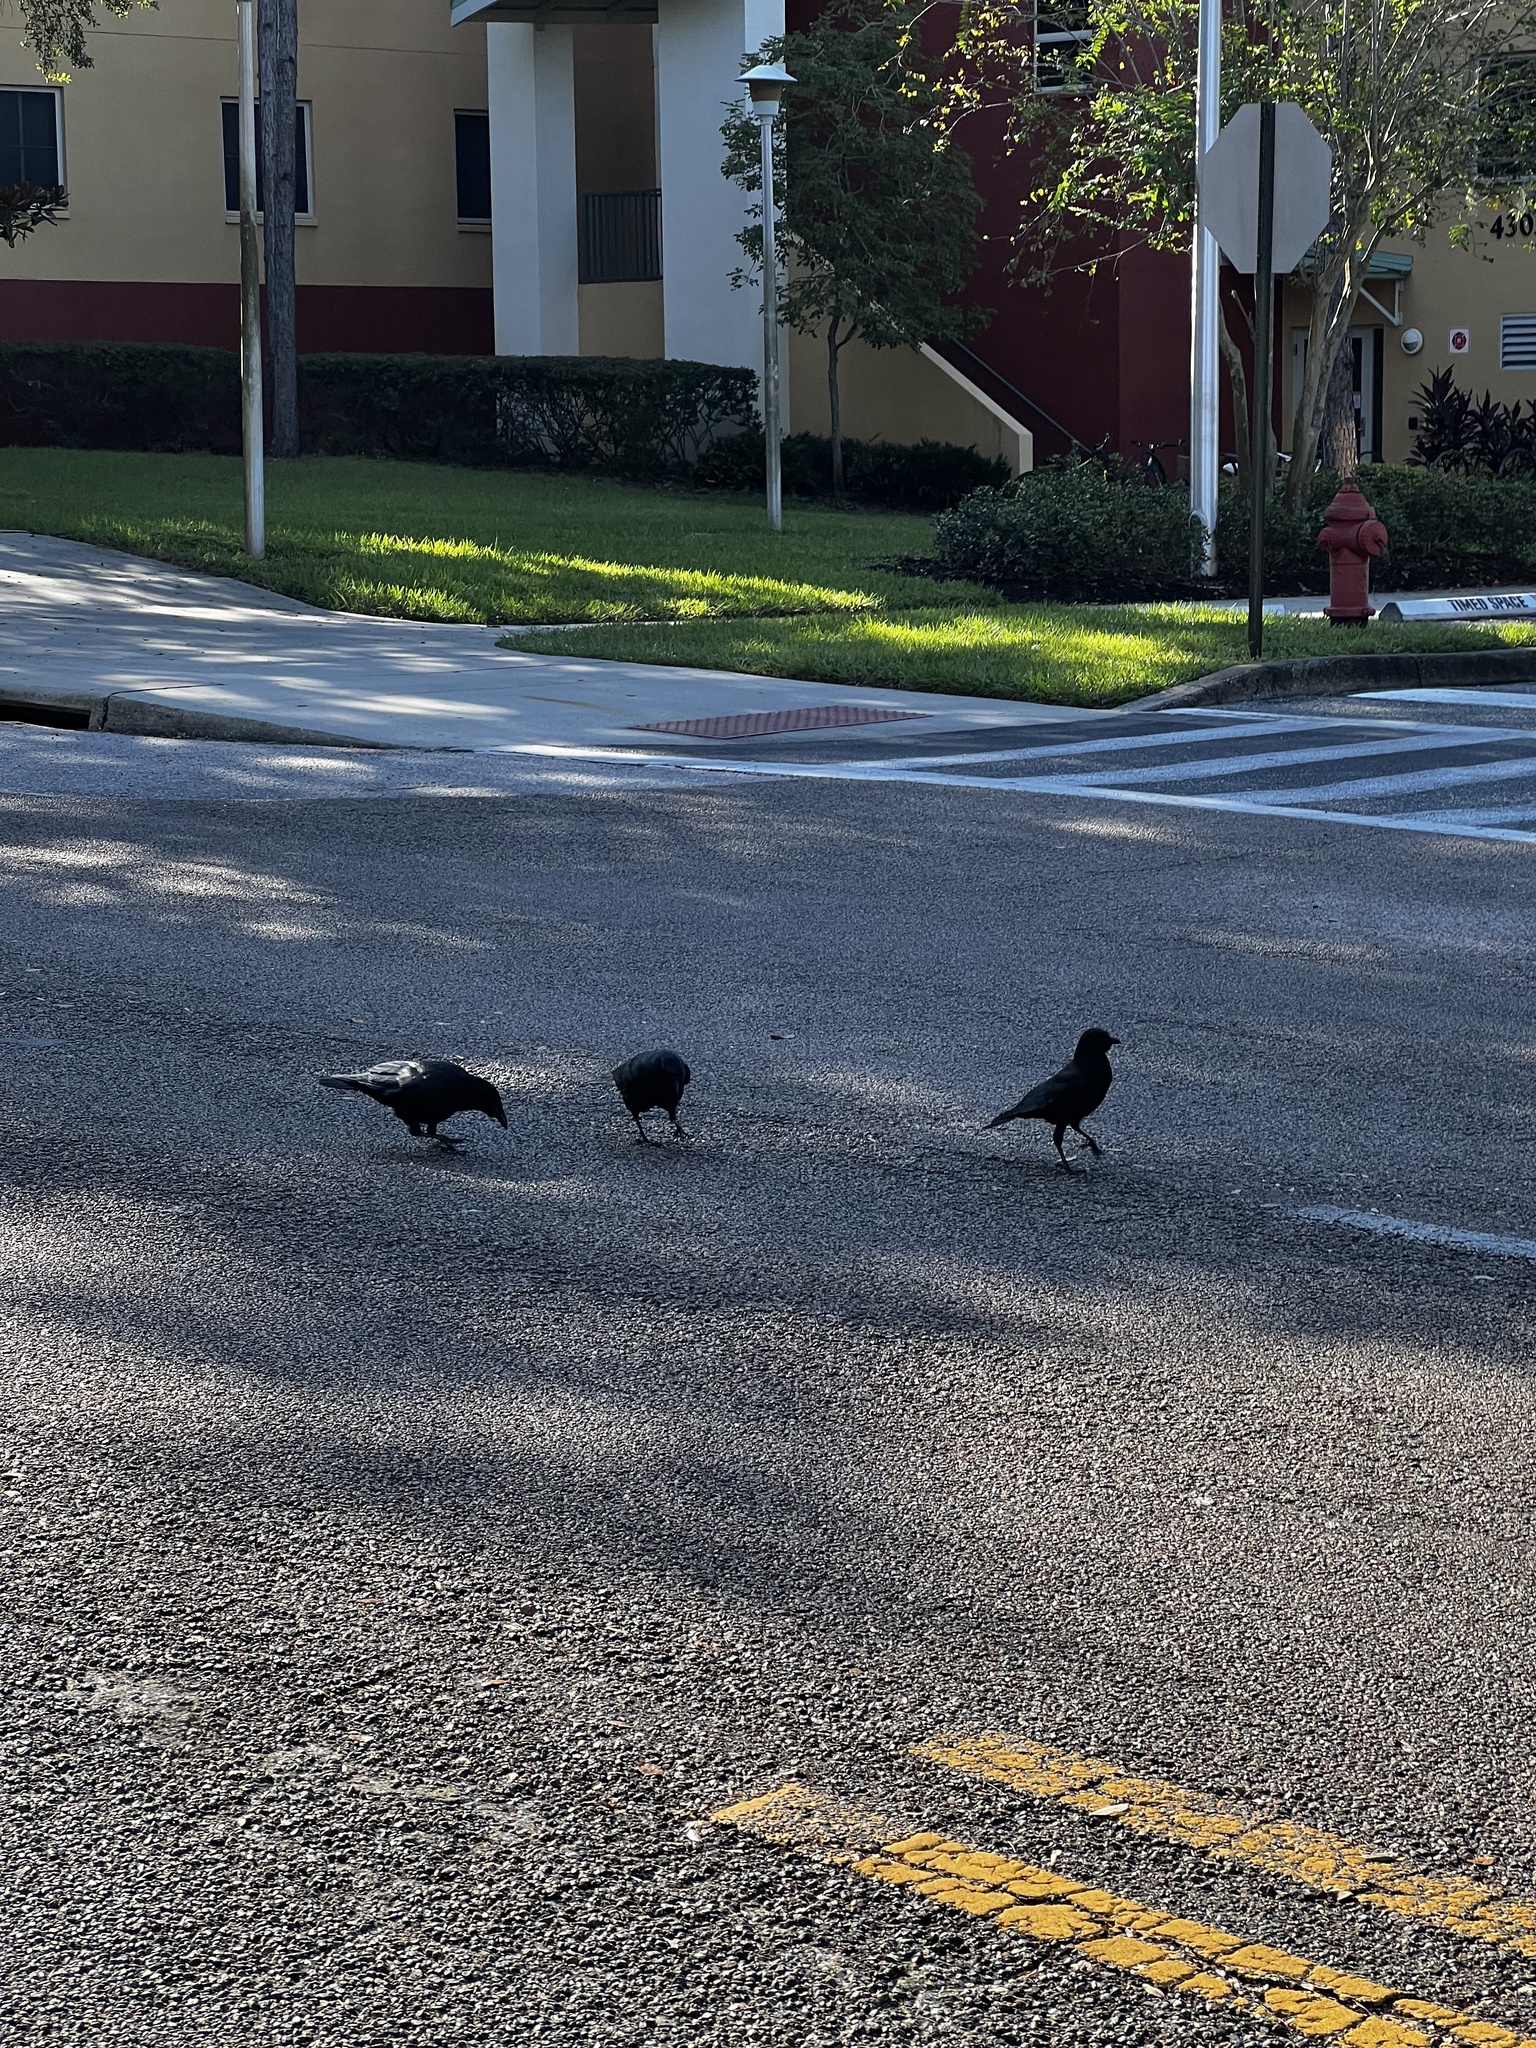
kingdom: Animalia
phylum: Chordata
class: Aves
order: Passeriformes
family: Corvidae
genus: Corvus
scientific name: Corvus
